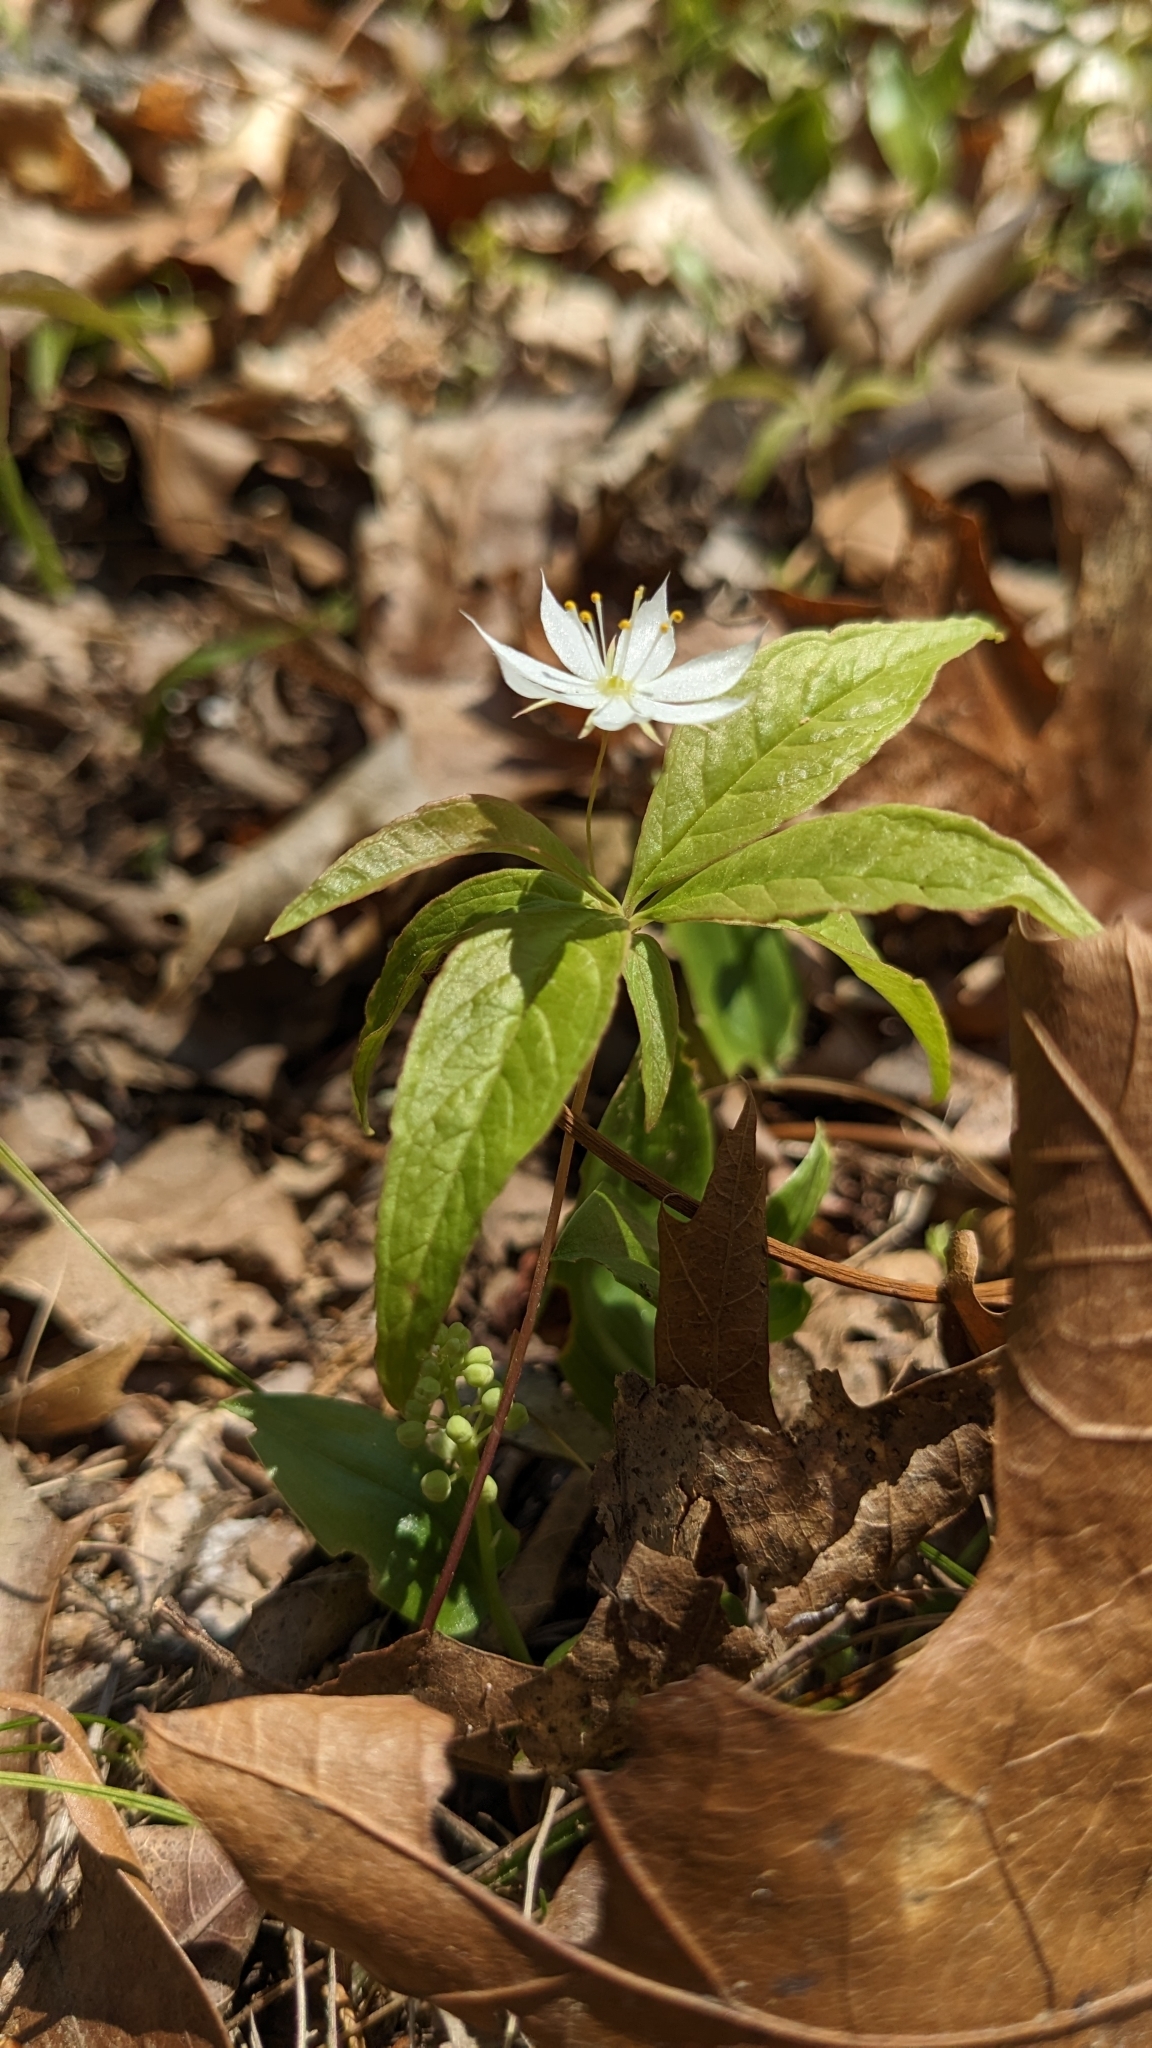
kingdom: Plantae
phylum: Tracheophyta
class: Magnoliopsida
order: Ericales
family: Primulaceae
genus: Lysimachia
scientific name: Lysimachia borealis
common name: American starflower
